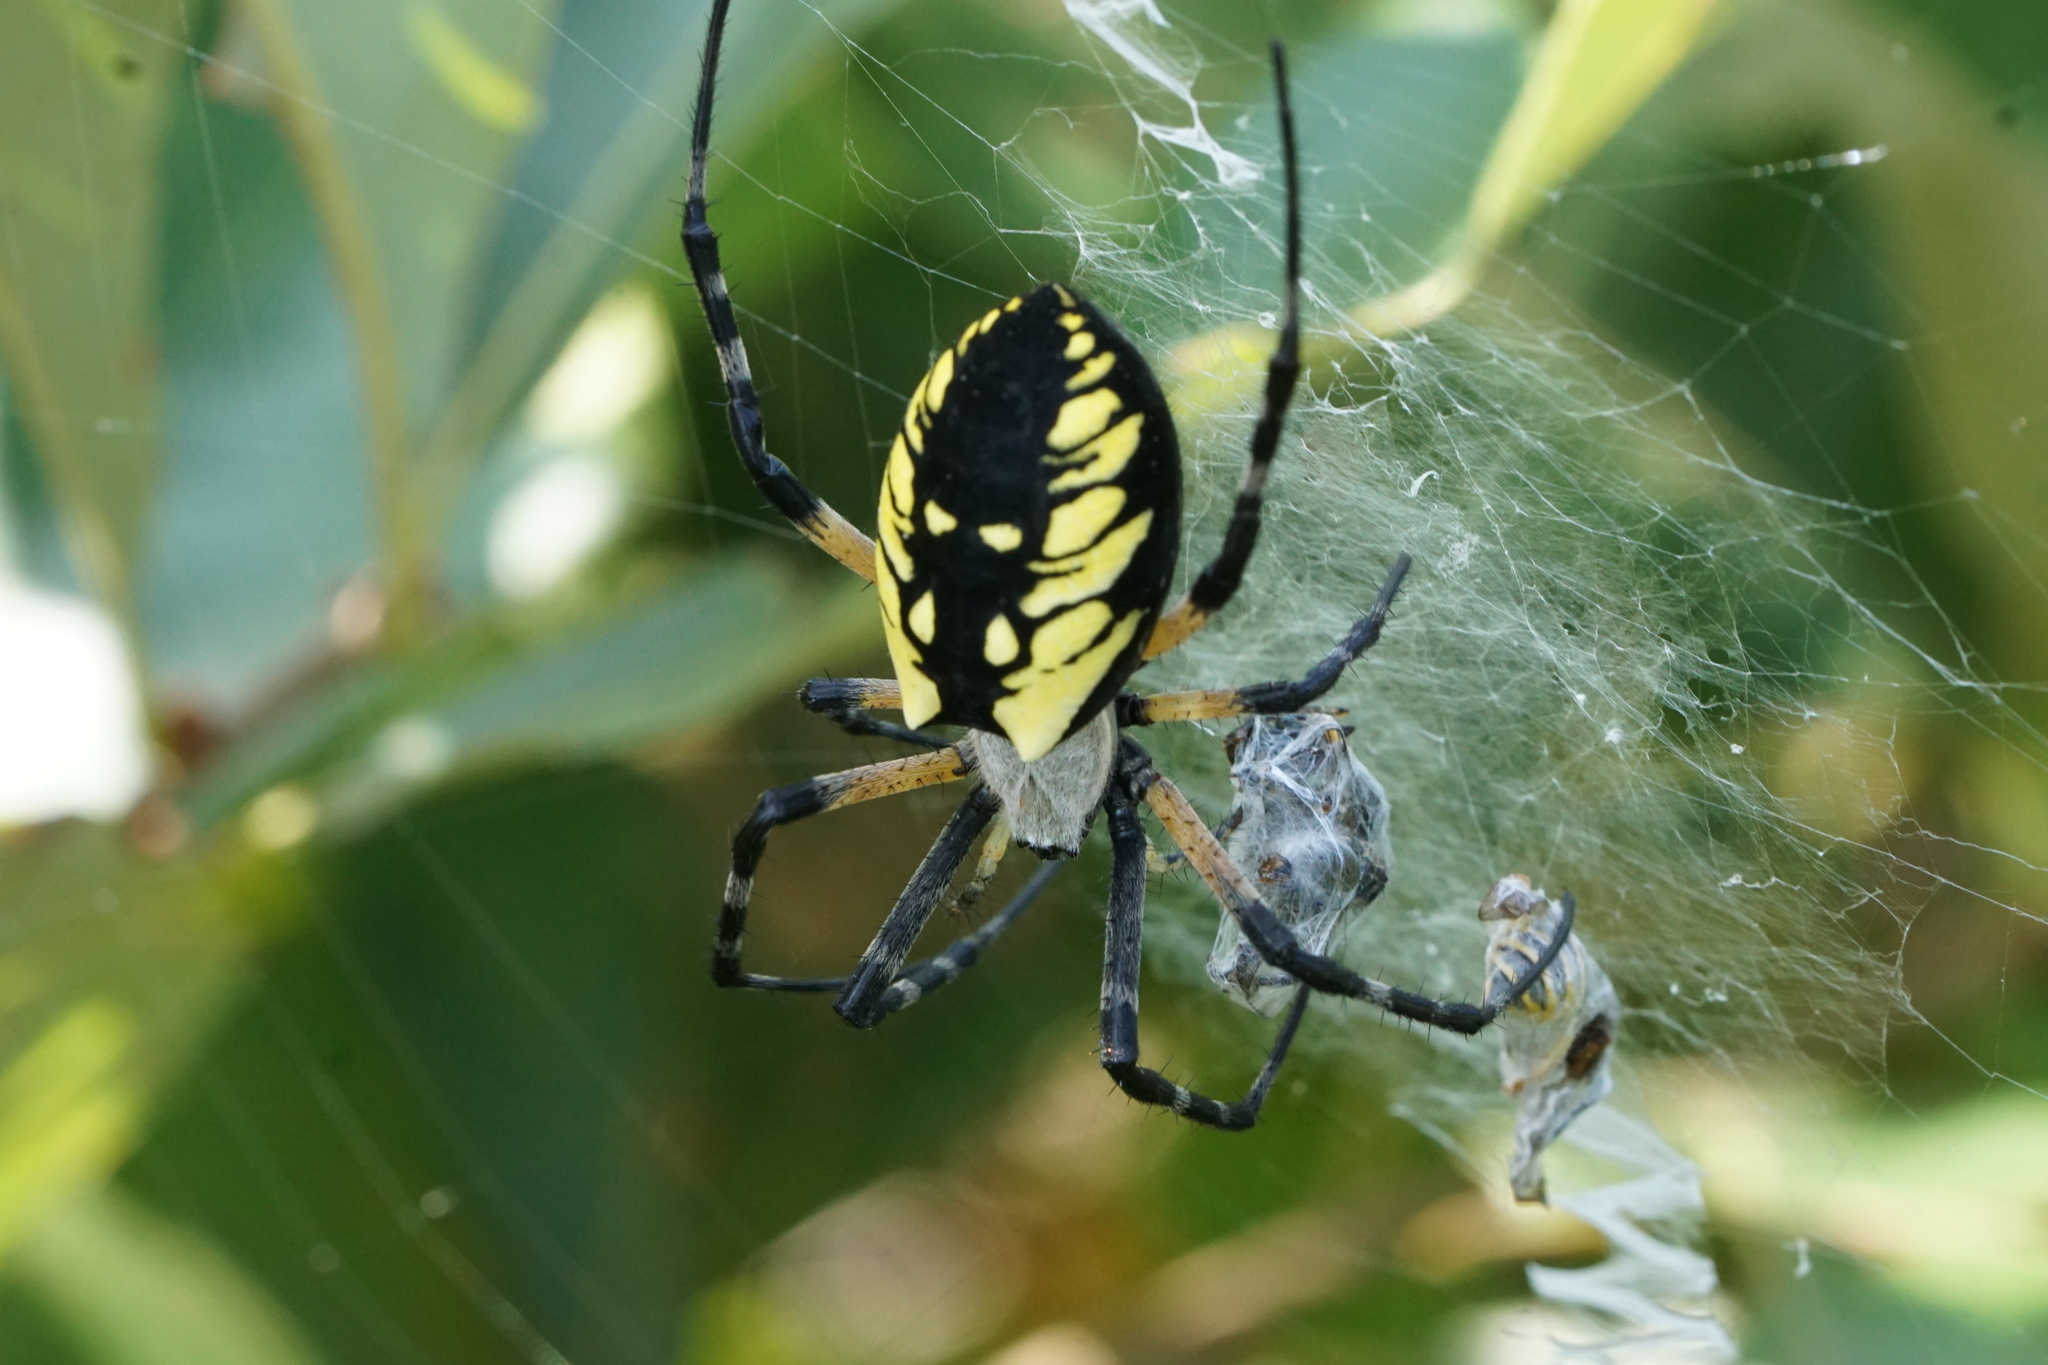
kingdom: Animalia
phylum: Arthropoda
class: Arachnida
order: Araneae
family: Araneidae
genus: Argiope
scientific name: Argiope aurantia
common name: Orb weavers
